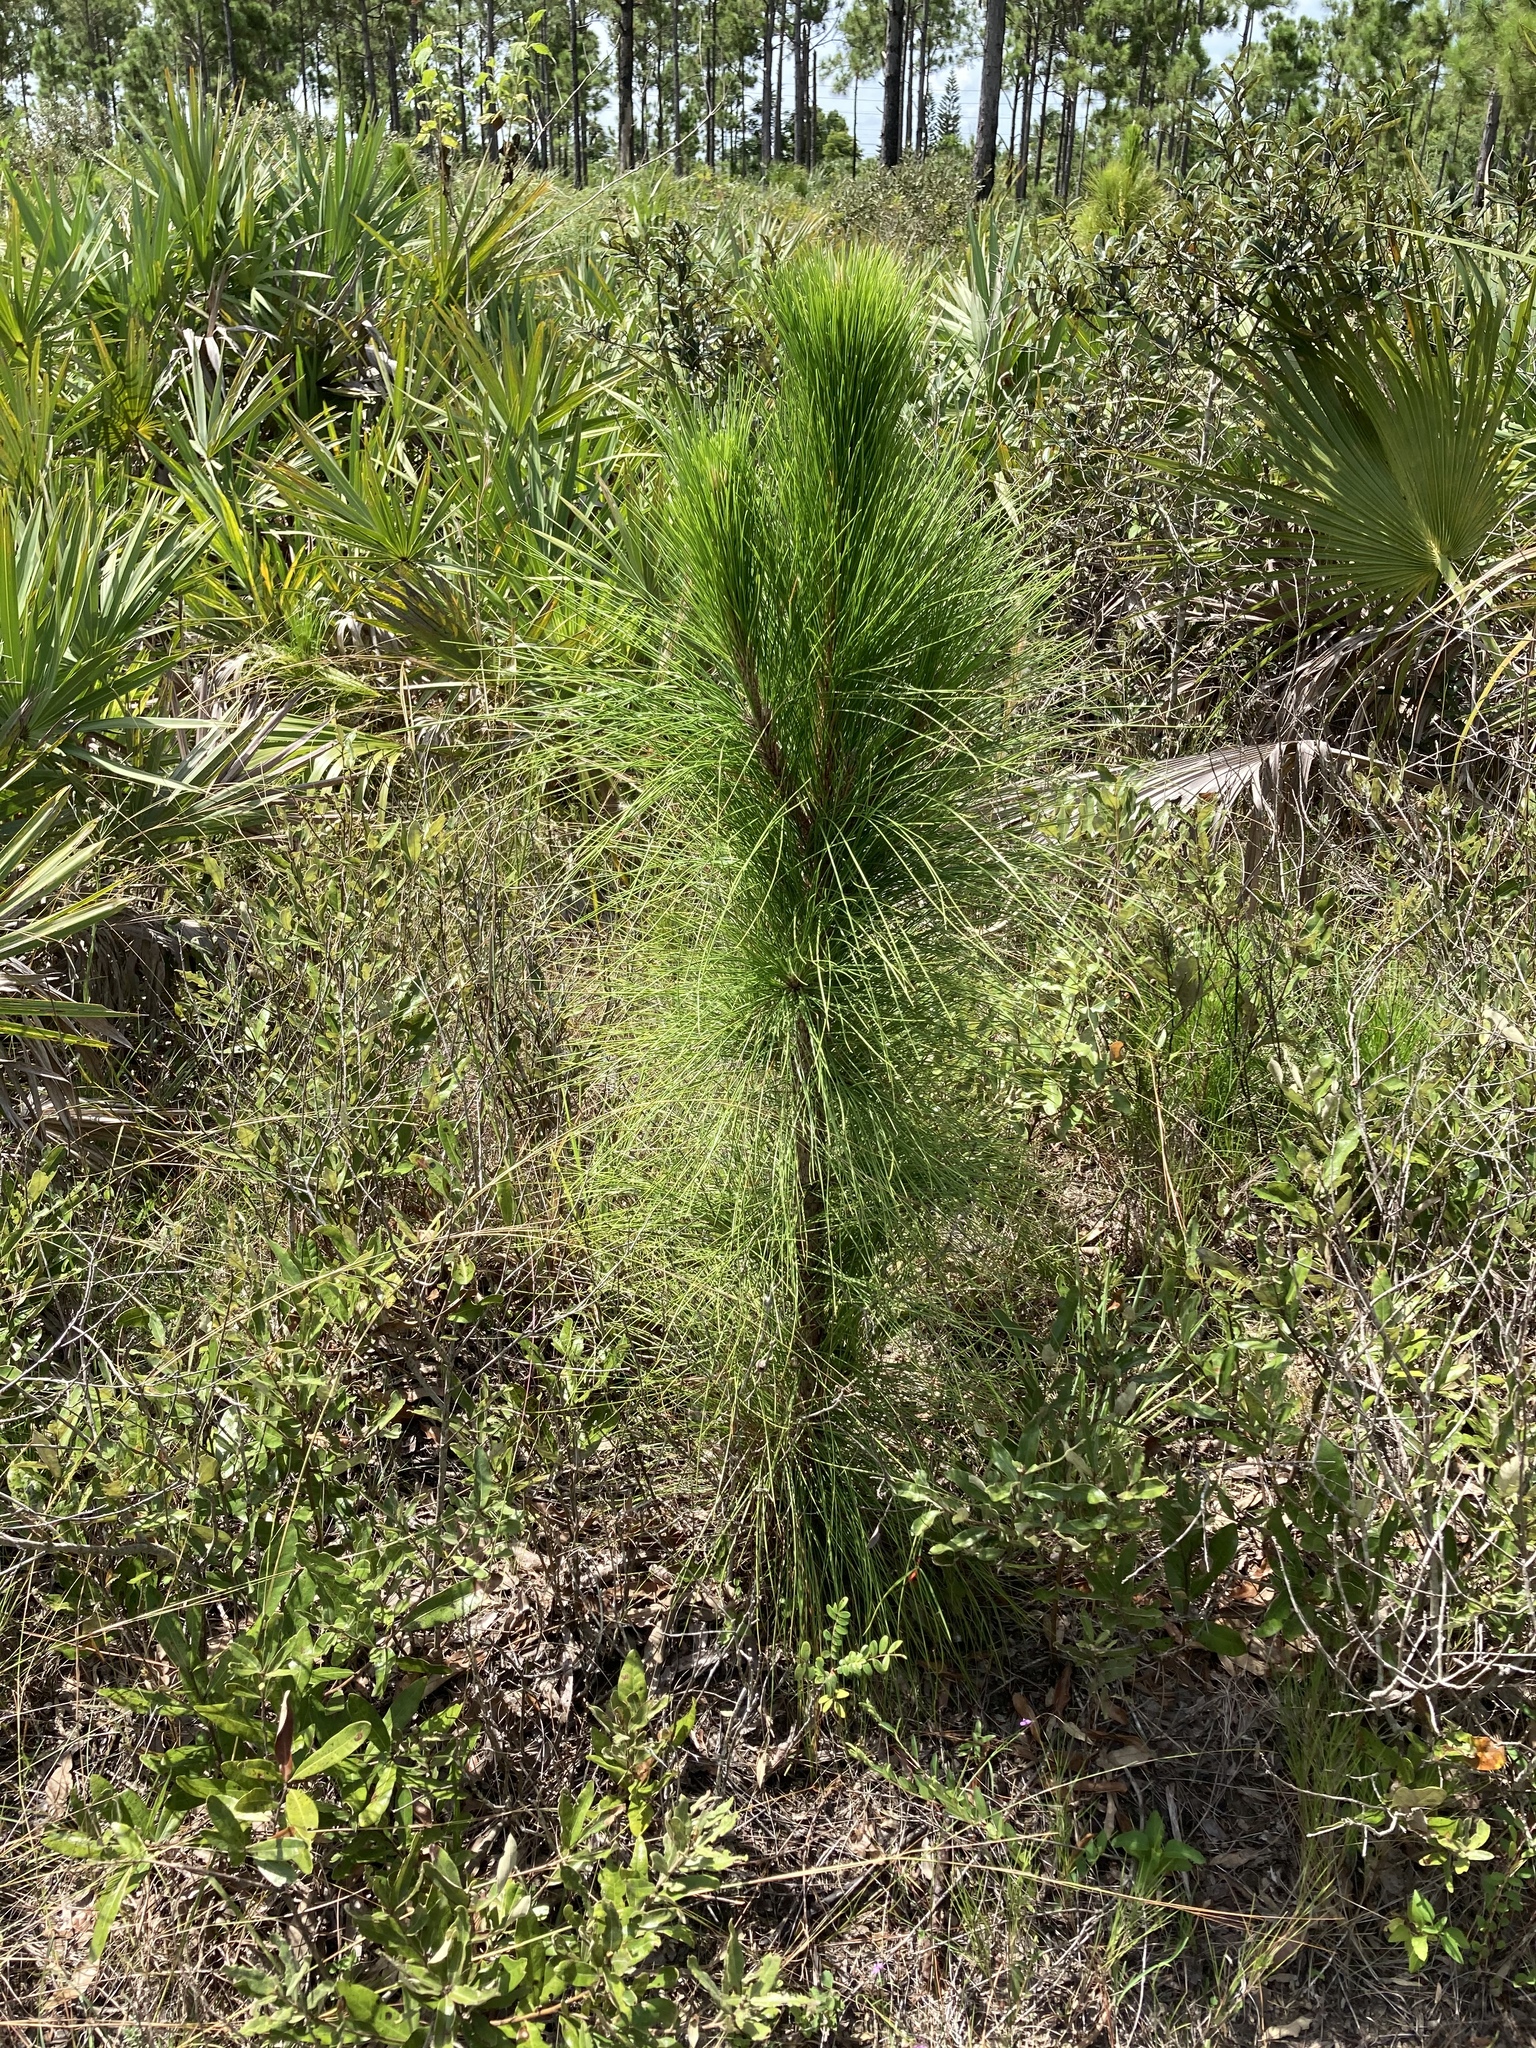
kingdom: Plantae
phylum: Tracheophyta
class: Pinopsida
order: Pinales
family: Pinaceae
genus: Pinus
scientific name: Pinus elliottii
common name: Slash pine
